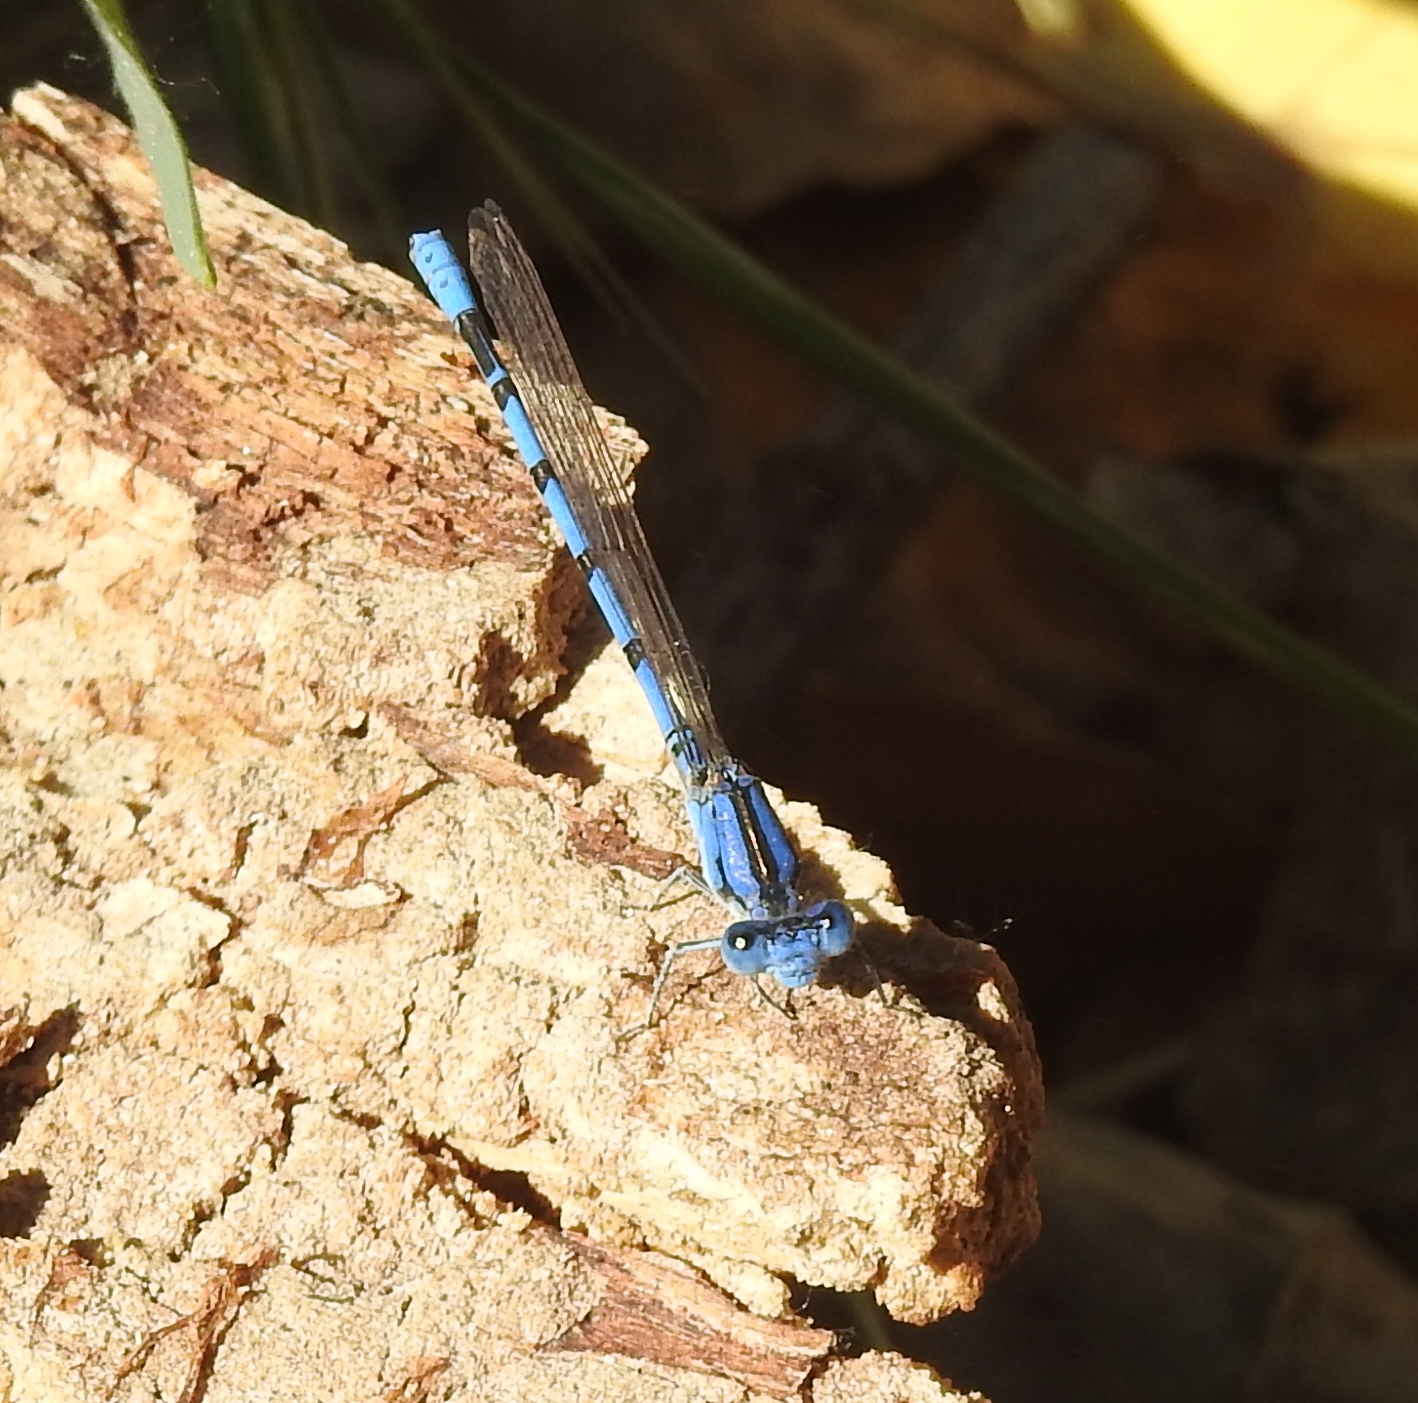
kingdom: Animalia
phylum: Arthropoda
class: Insecta
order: Odonata
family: Coenagrionidae
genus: Argia
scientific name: Argia nahuana
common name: Aztec dancer
